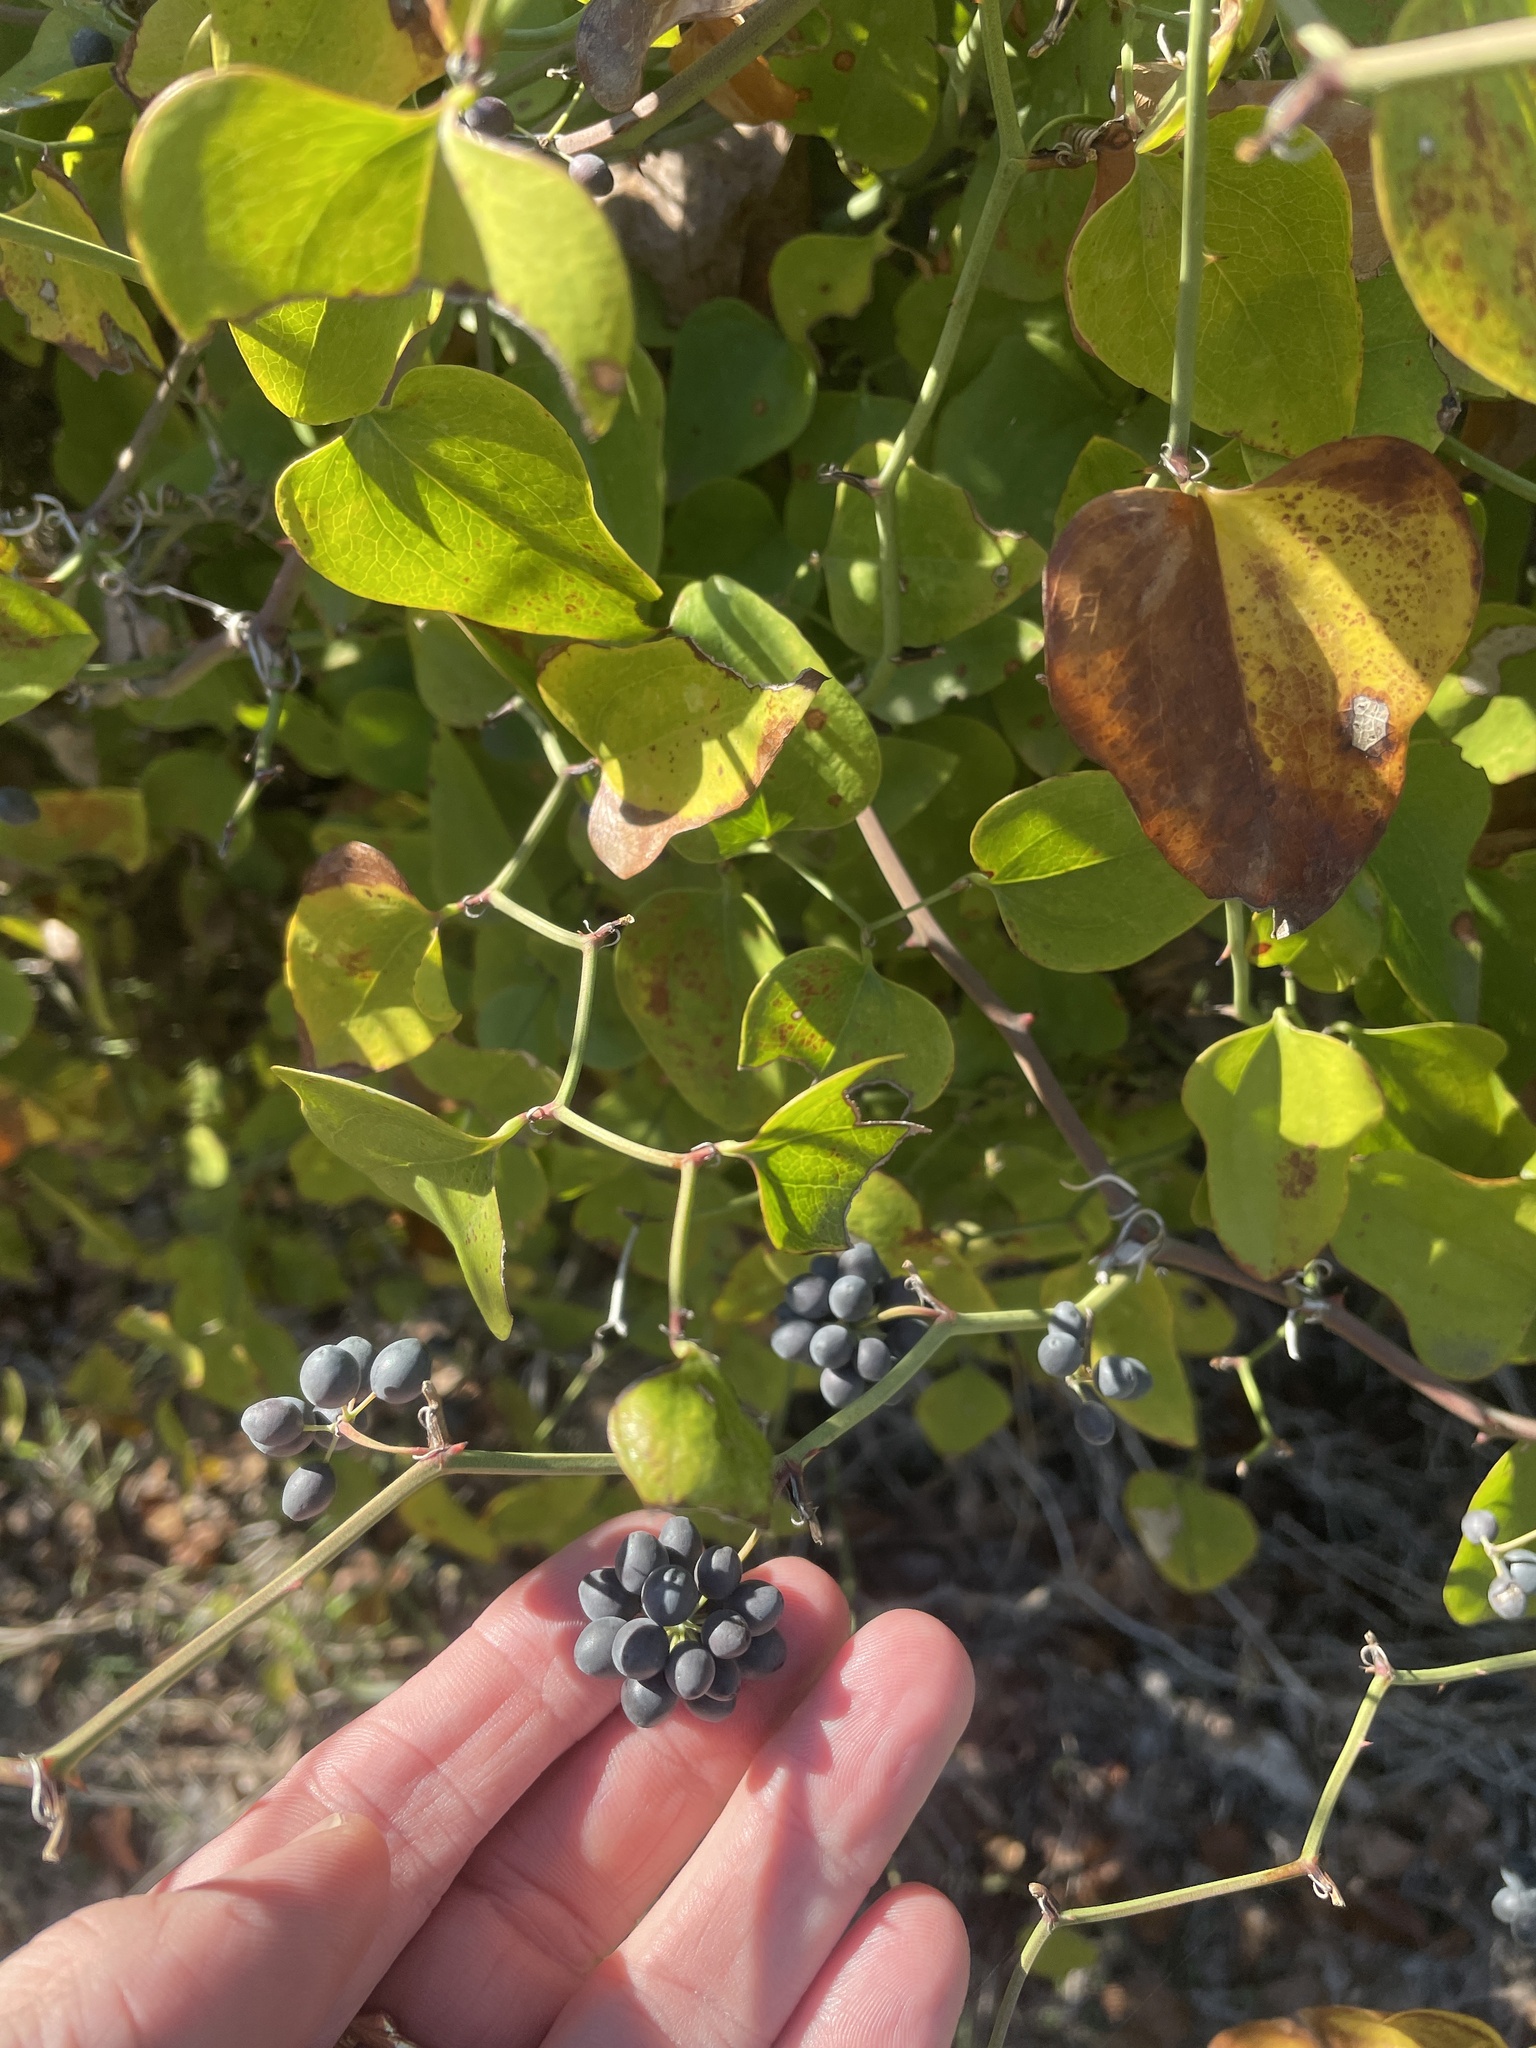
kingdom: Plantae
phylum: Tracheophyta
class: Liliopsida
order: Liliales
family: Smilacaceae
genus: Smilax
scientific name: Smilax bona-nox
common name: Catbrier
